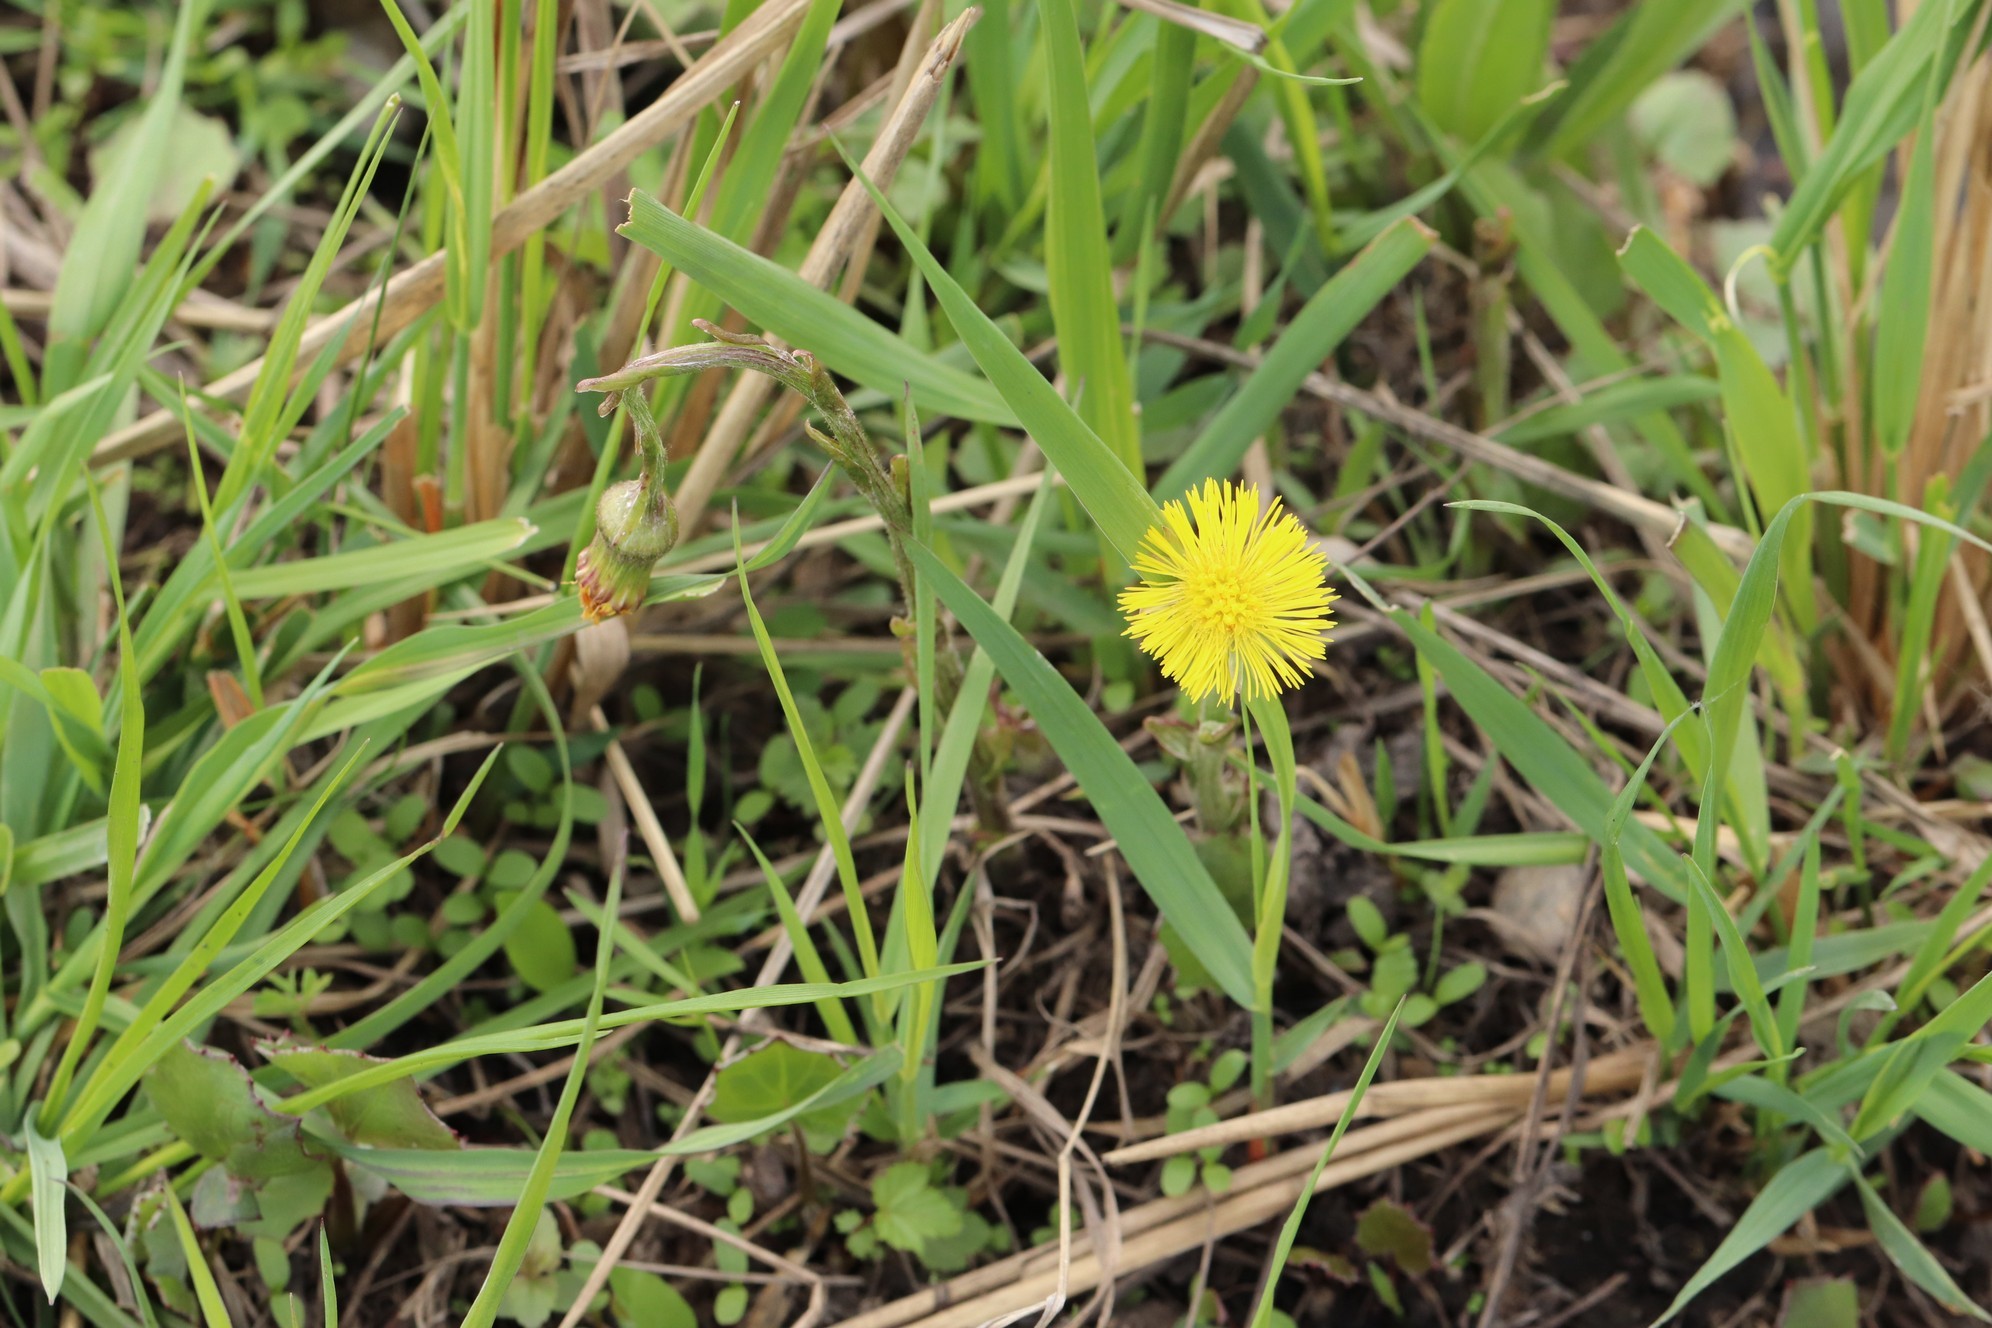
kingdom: Plantae
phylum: Tracheophyta
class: Magnoliopsida
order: Asterales
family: Asteraceae
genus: Tussilago
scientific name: Tussilago farfara
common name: Coltsfoot
